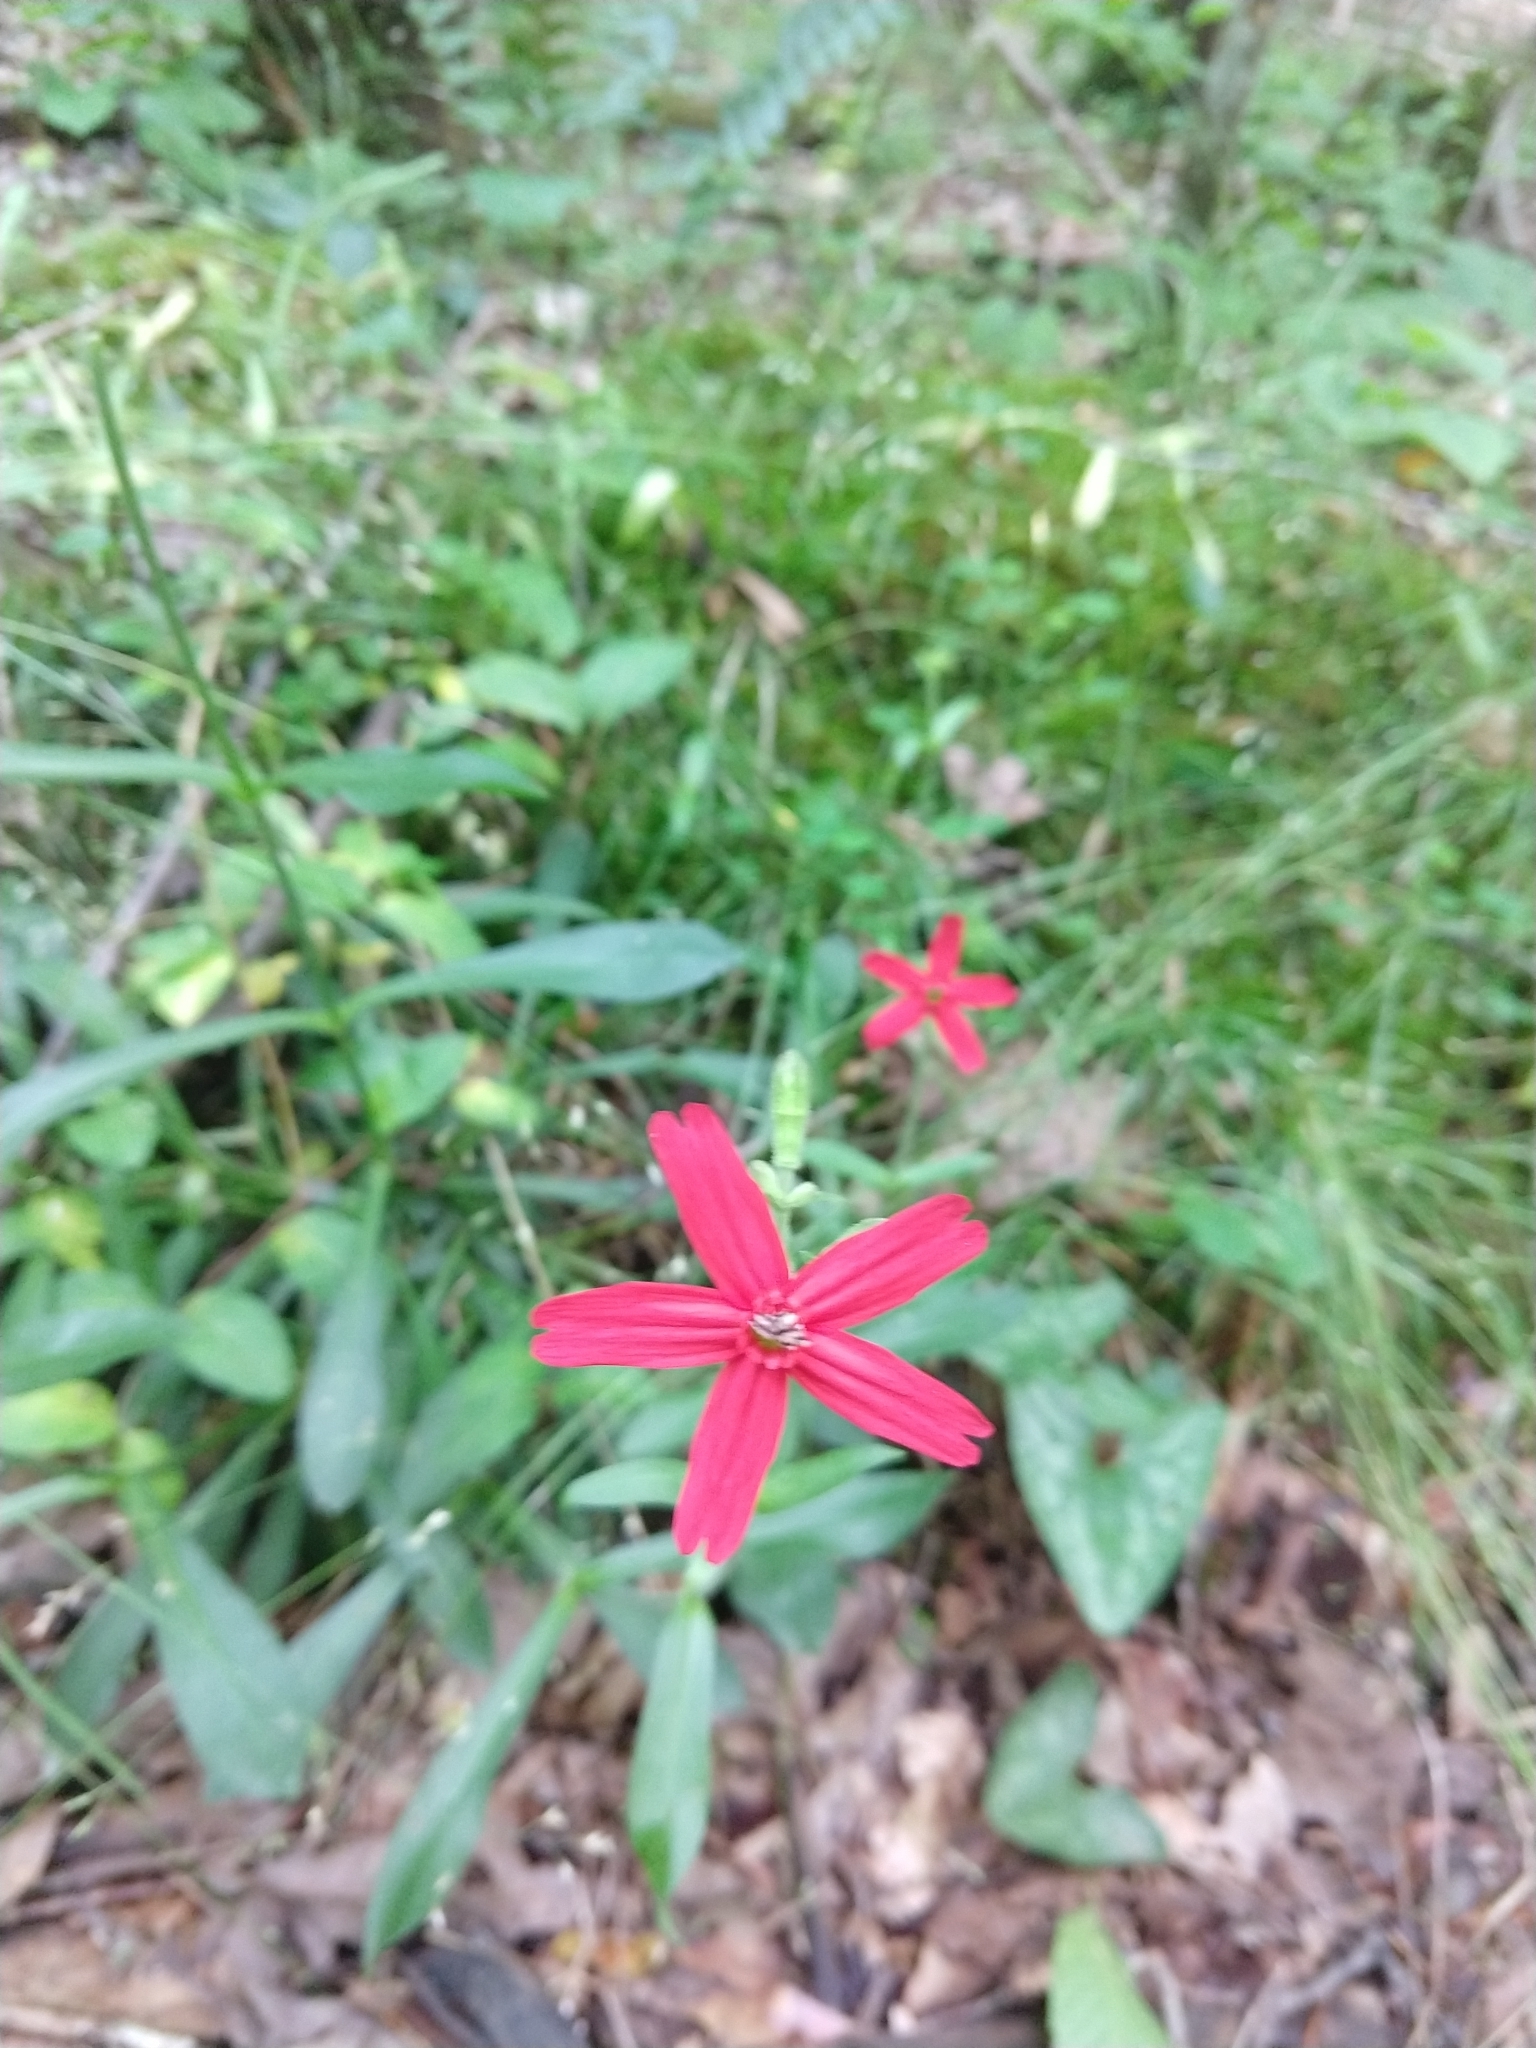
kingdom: Plantae
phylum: Tracheophyta
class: Magnoliopsida
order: Caryophyllales
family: Caryophyllaceae
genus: Silene
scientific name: Silene virginica
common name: Fire-pink
